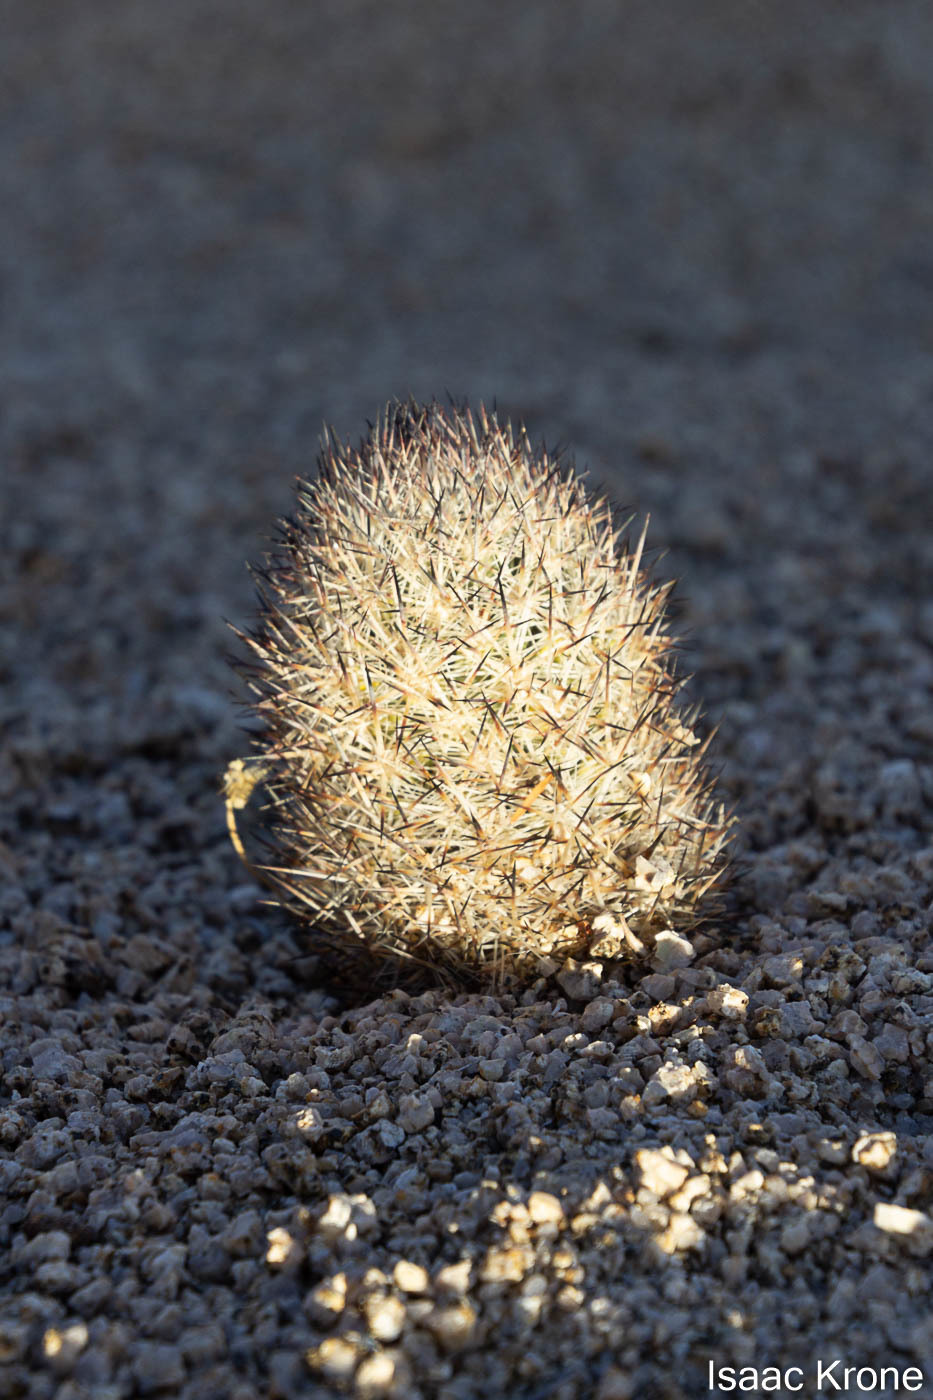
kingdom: Plantae
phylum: Tracheophyta
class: Magnoliopsida
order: Caryophyllales
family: Cactaceae
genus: Pelecyphora
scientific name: Pelecyphora alversonii
